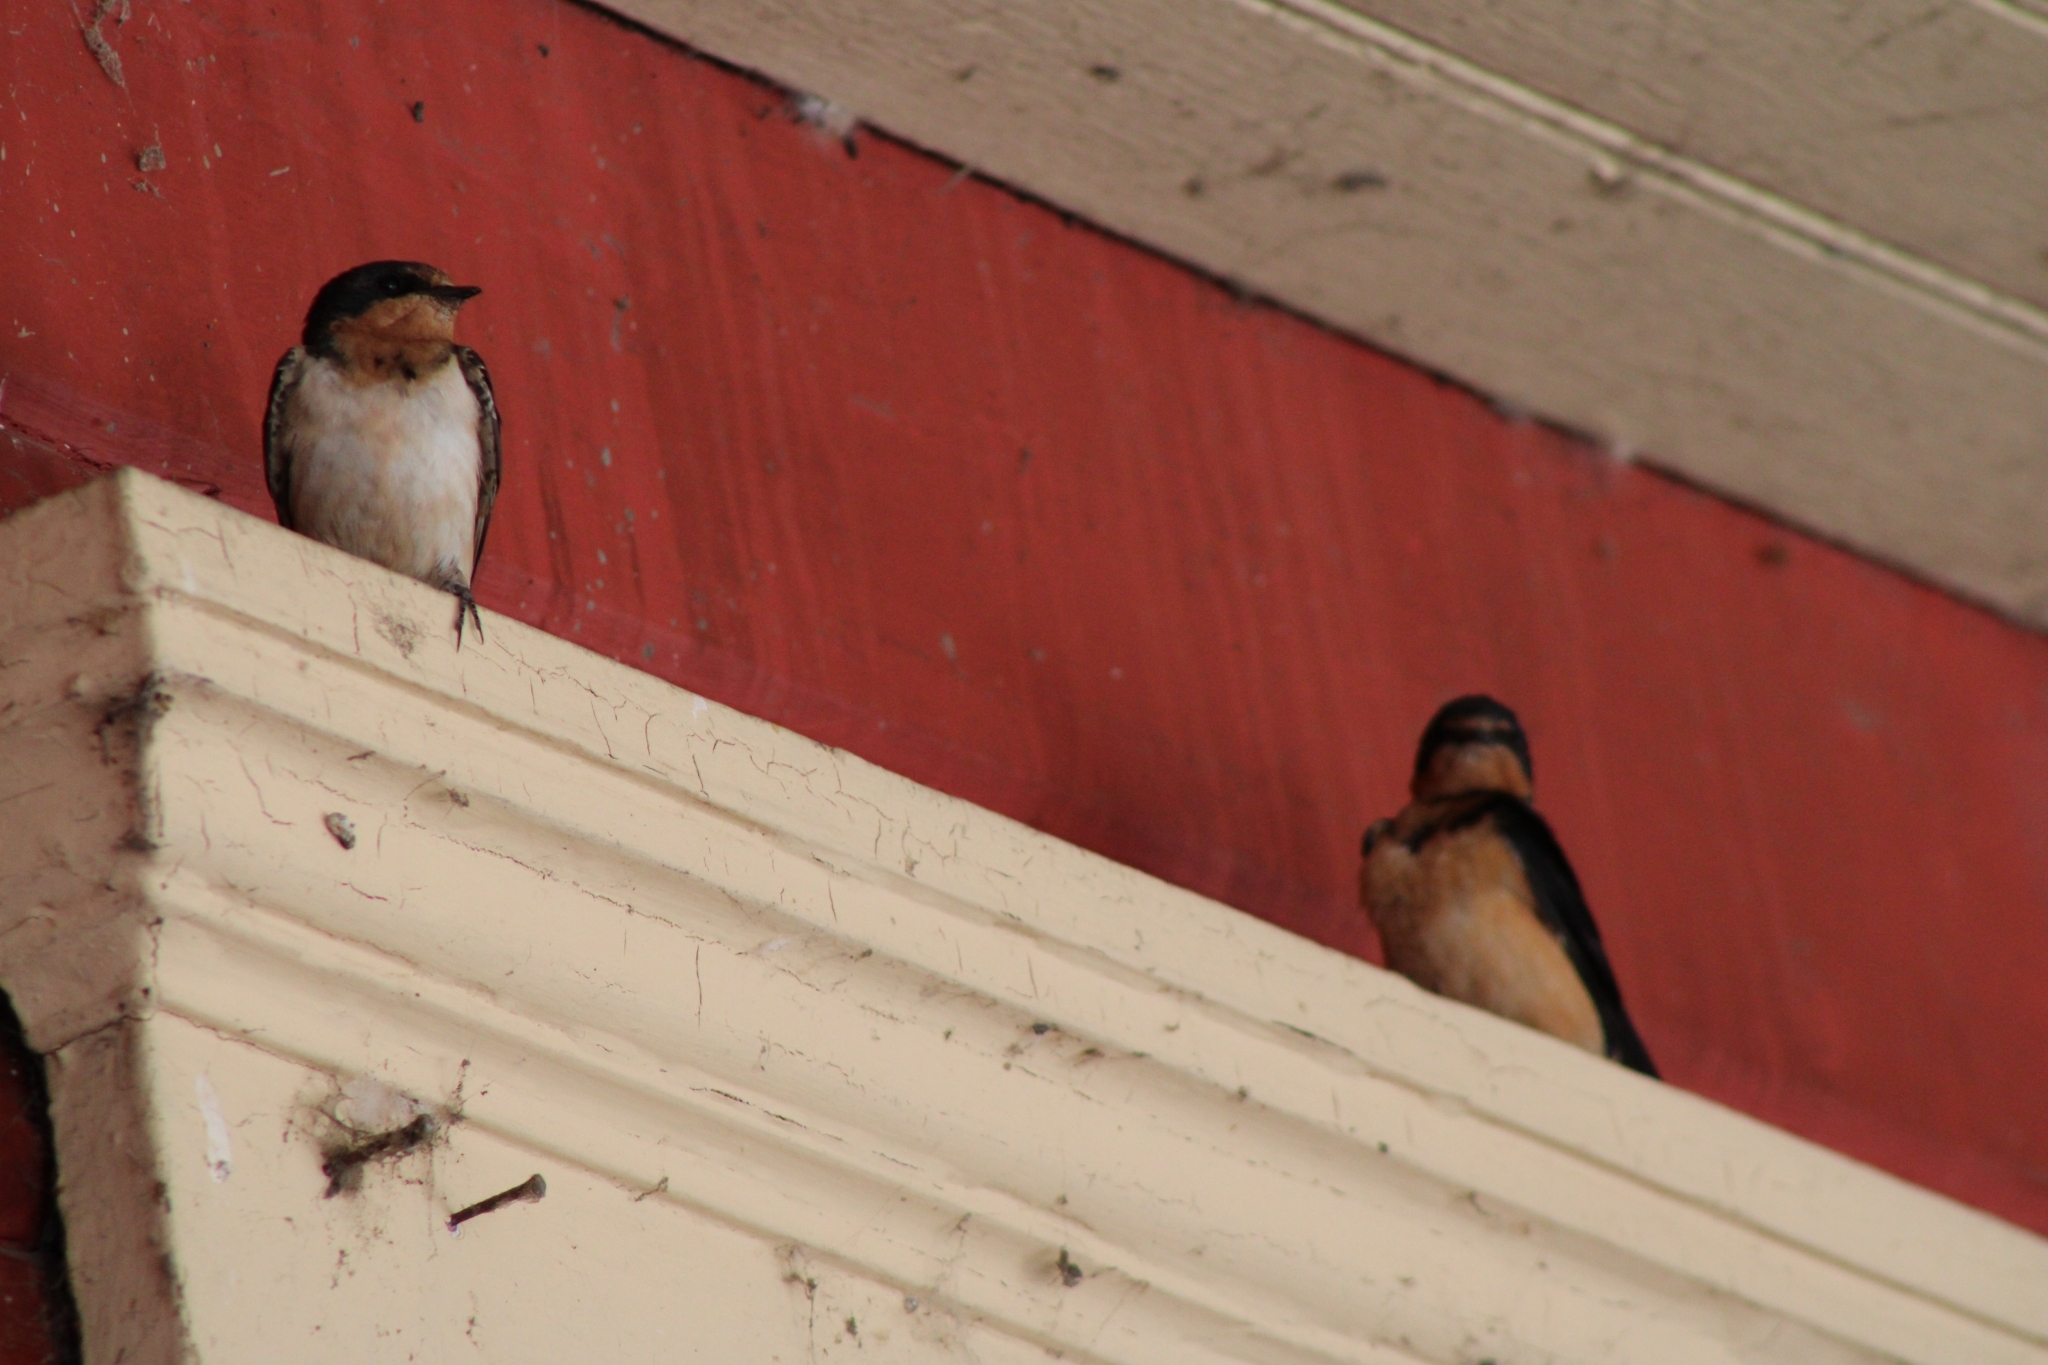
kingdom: Animalia
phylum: Chordata
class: Aves
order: Passeriformes
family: Hirundinidae
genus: Hirundo
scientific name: Hirundo rustica
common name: Barn swallow
